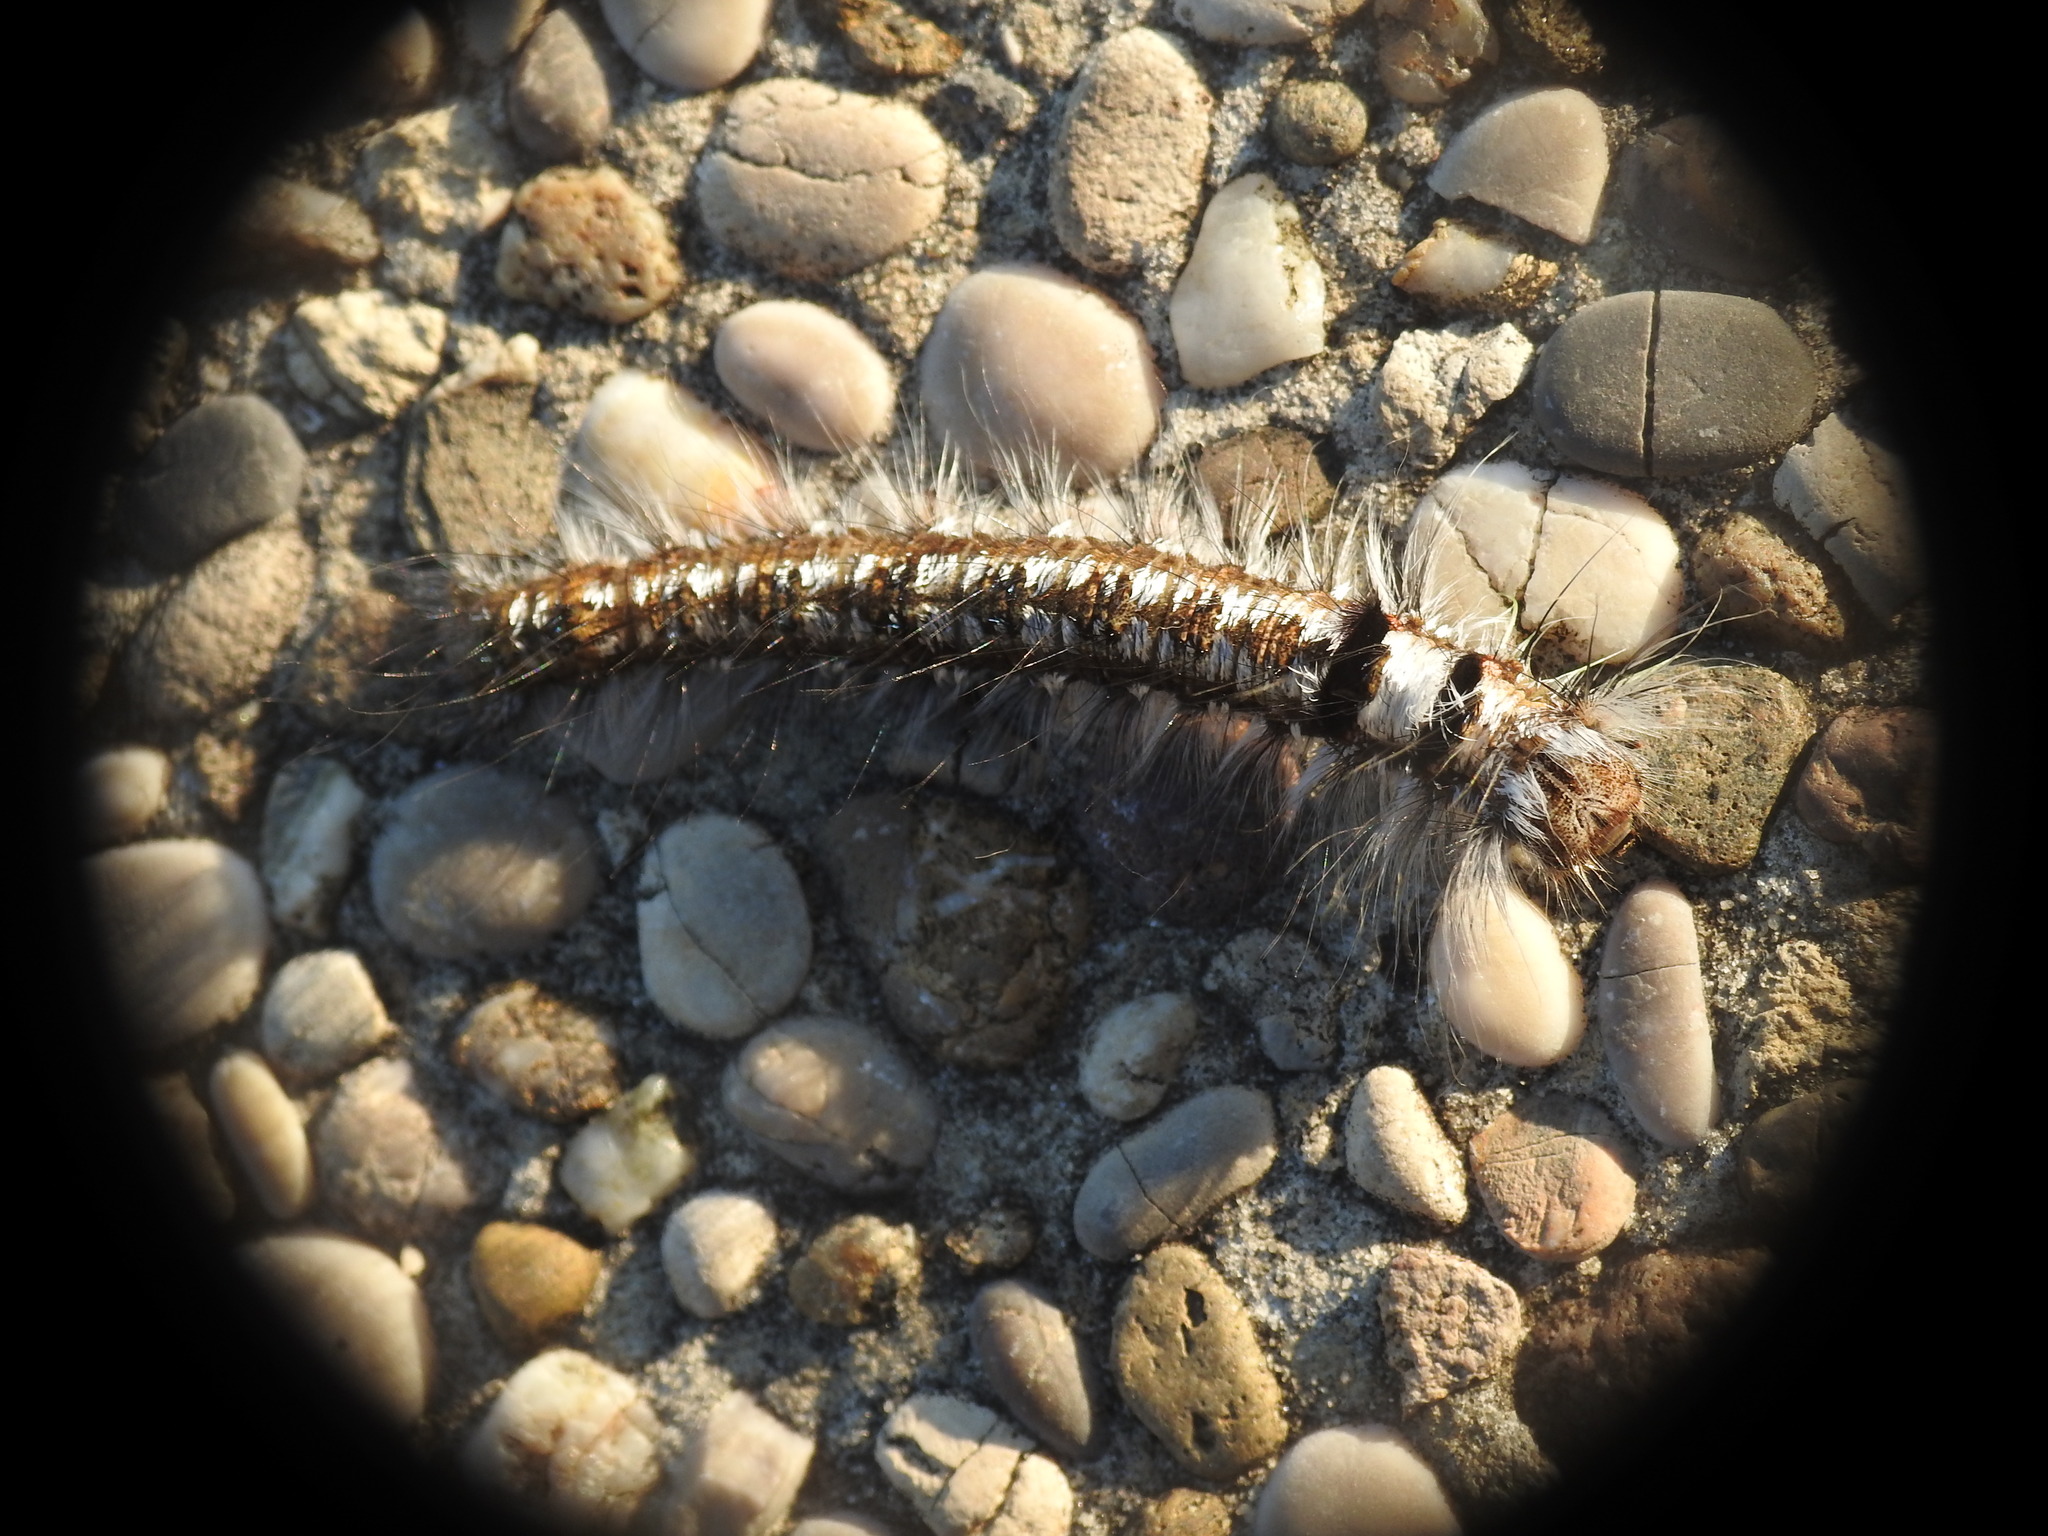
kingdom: Animalia
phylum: Arthropoda
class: Insecta
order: Lepidoptera
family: Lasiocampidae
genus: Dendrolimus
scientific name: Dendrolimus pini
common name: Pine-tree lappet
